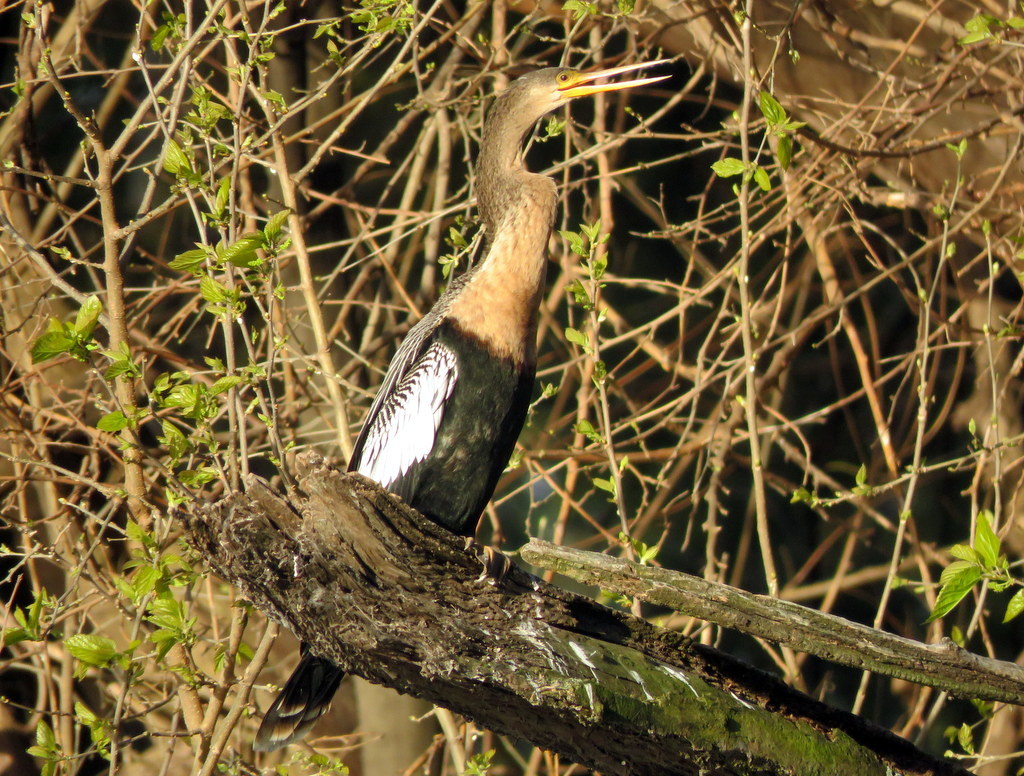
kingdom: Animalia
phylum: Chordata
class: Aves
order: Suliformes
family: Anhingidae
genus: Anhinga
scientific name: Anhinga anhinga
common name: Anhinga
